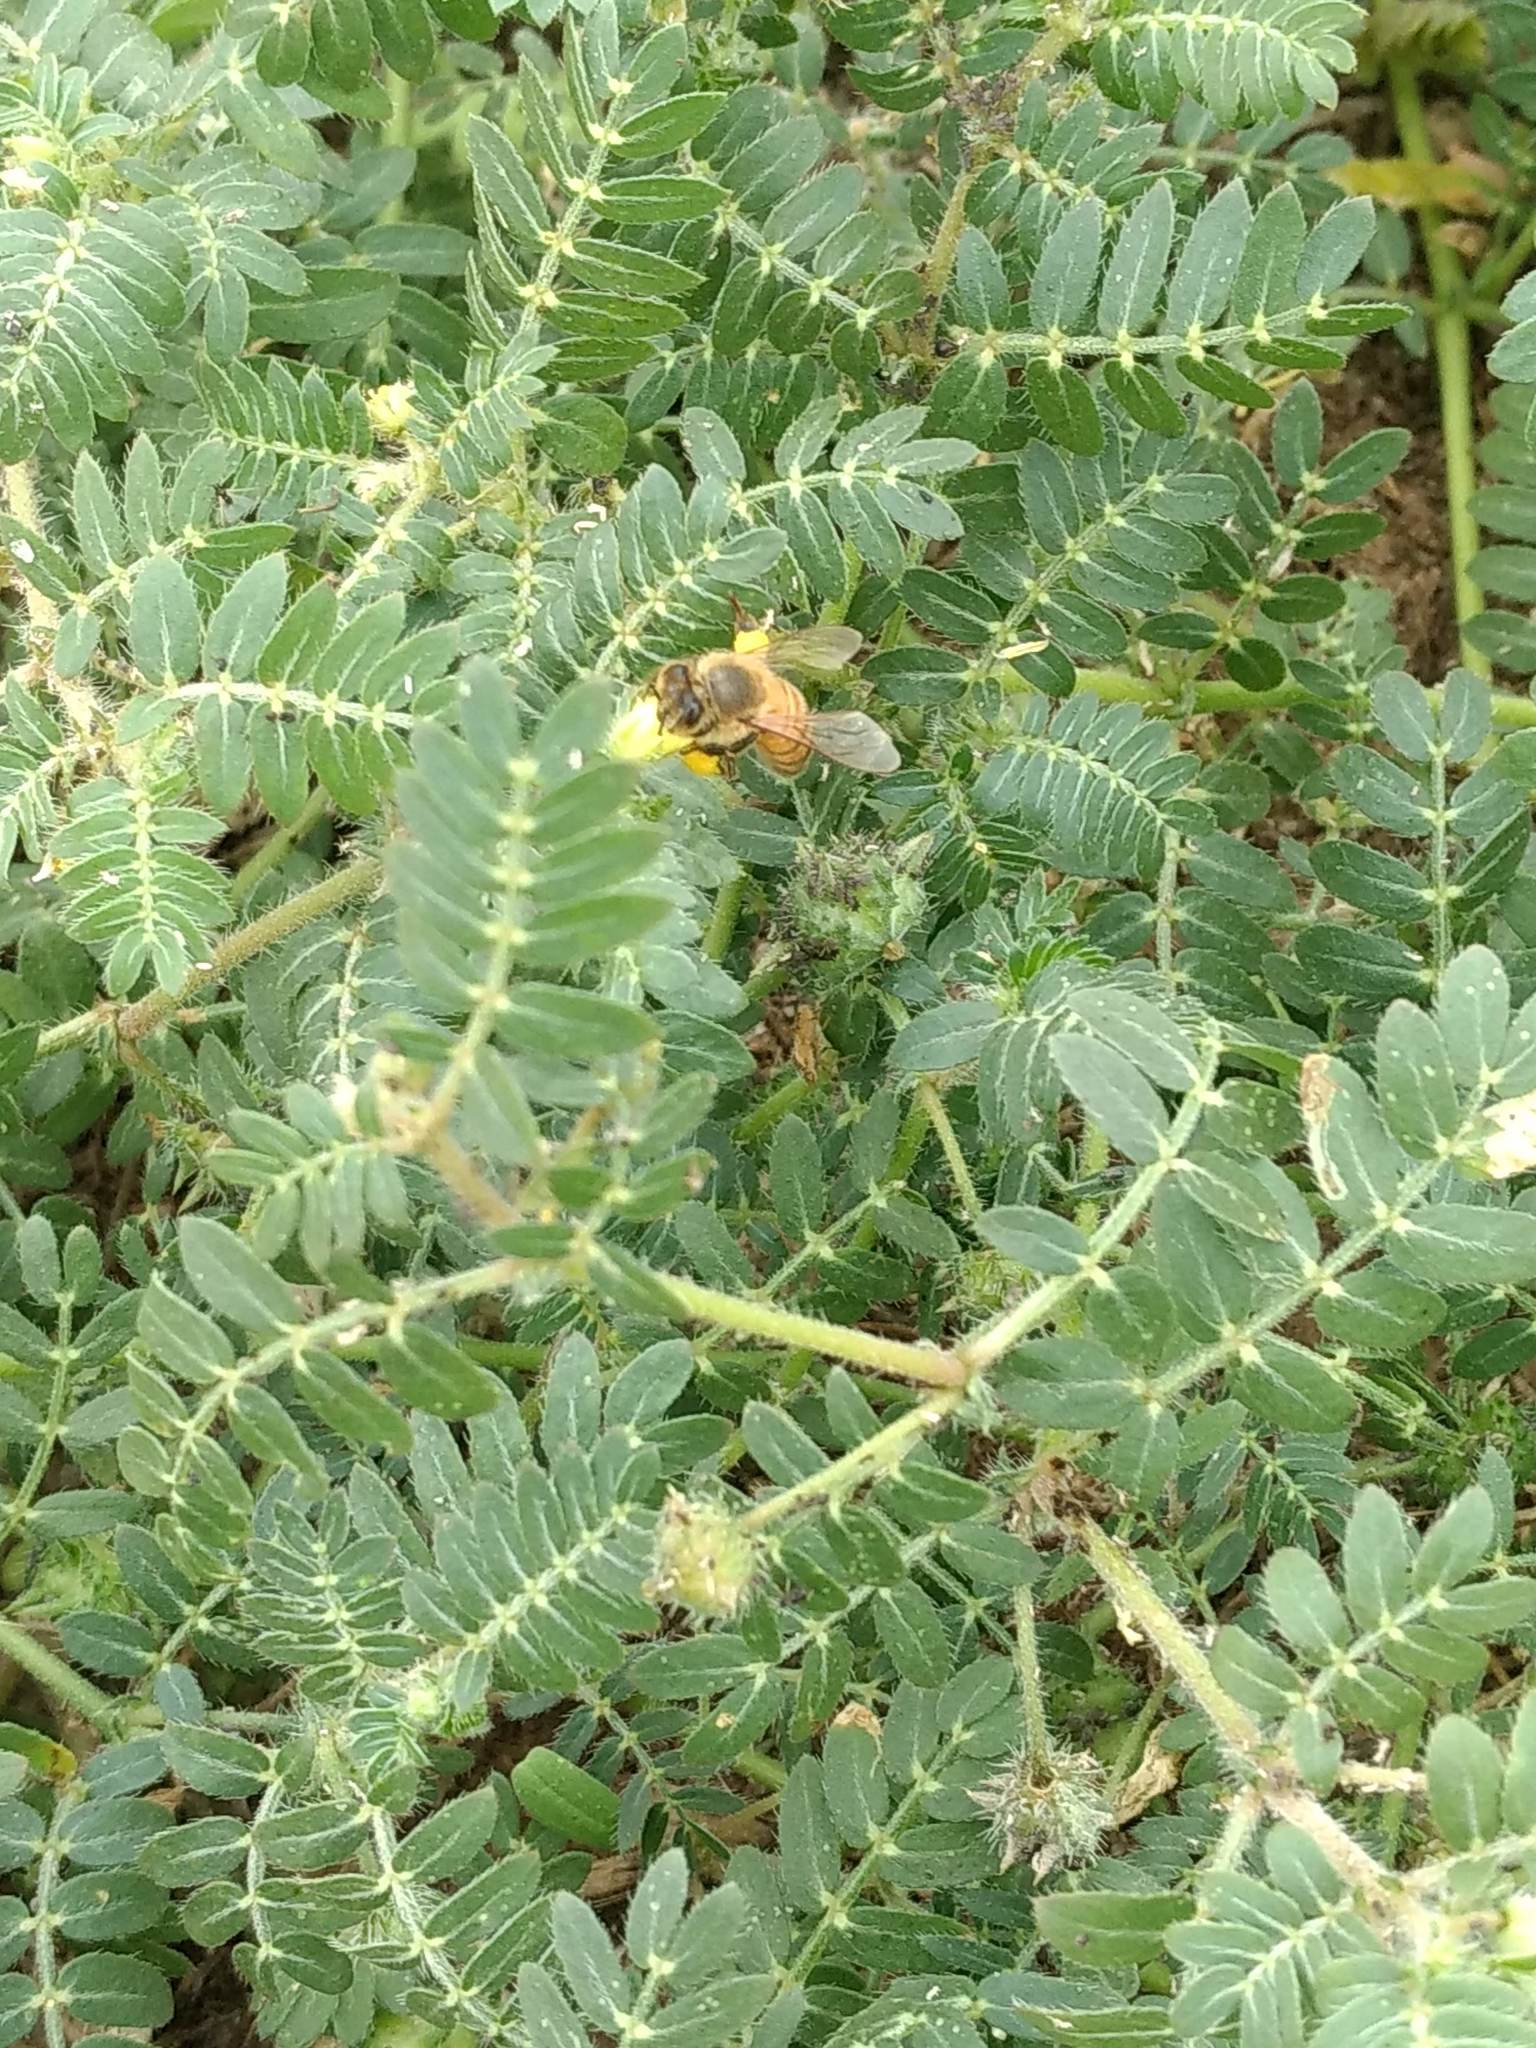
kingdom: Plantae
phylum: Tracheophyta
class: Magnoliopsida
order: Zygophyllales
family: Zygophyllaceae
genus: Tribulus
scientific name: Tribulus terrestris
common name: Puncturevine
